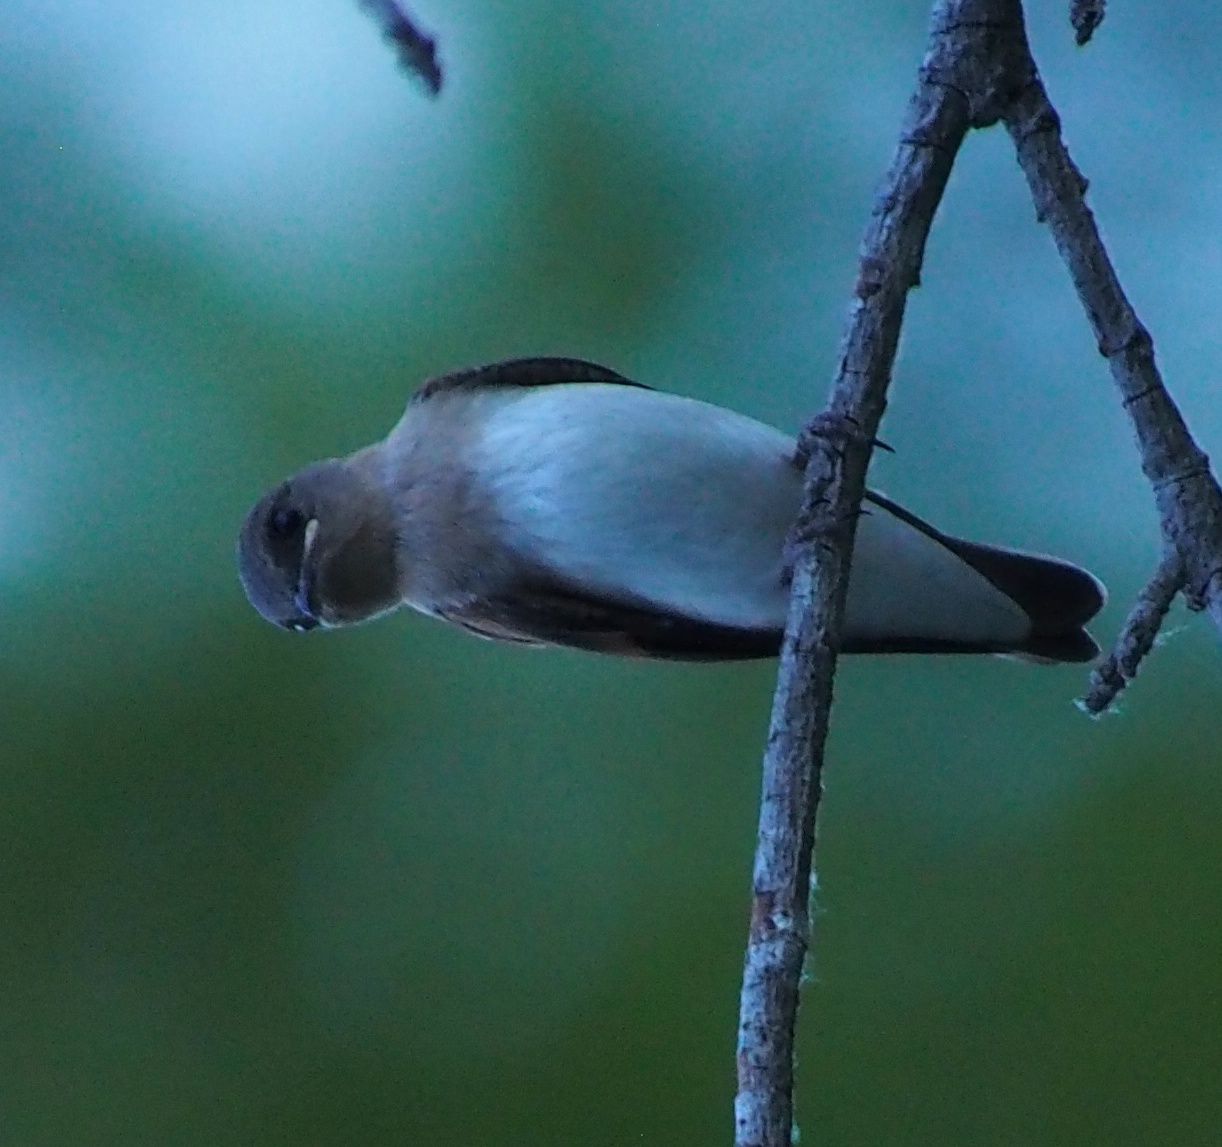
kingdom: Animalia
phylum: Chordata
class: Aves
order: Passeriformes
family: Hirundinidae
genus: Stelgidopteryx
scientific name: Stelgidopteryx serripennis
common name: Northern rough-winged swallow
